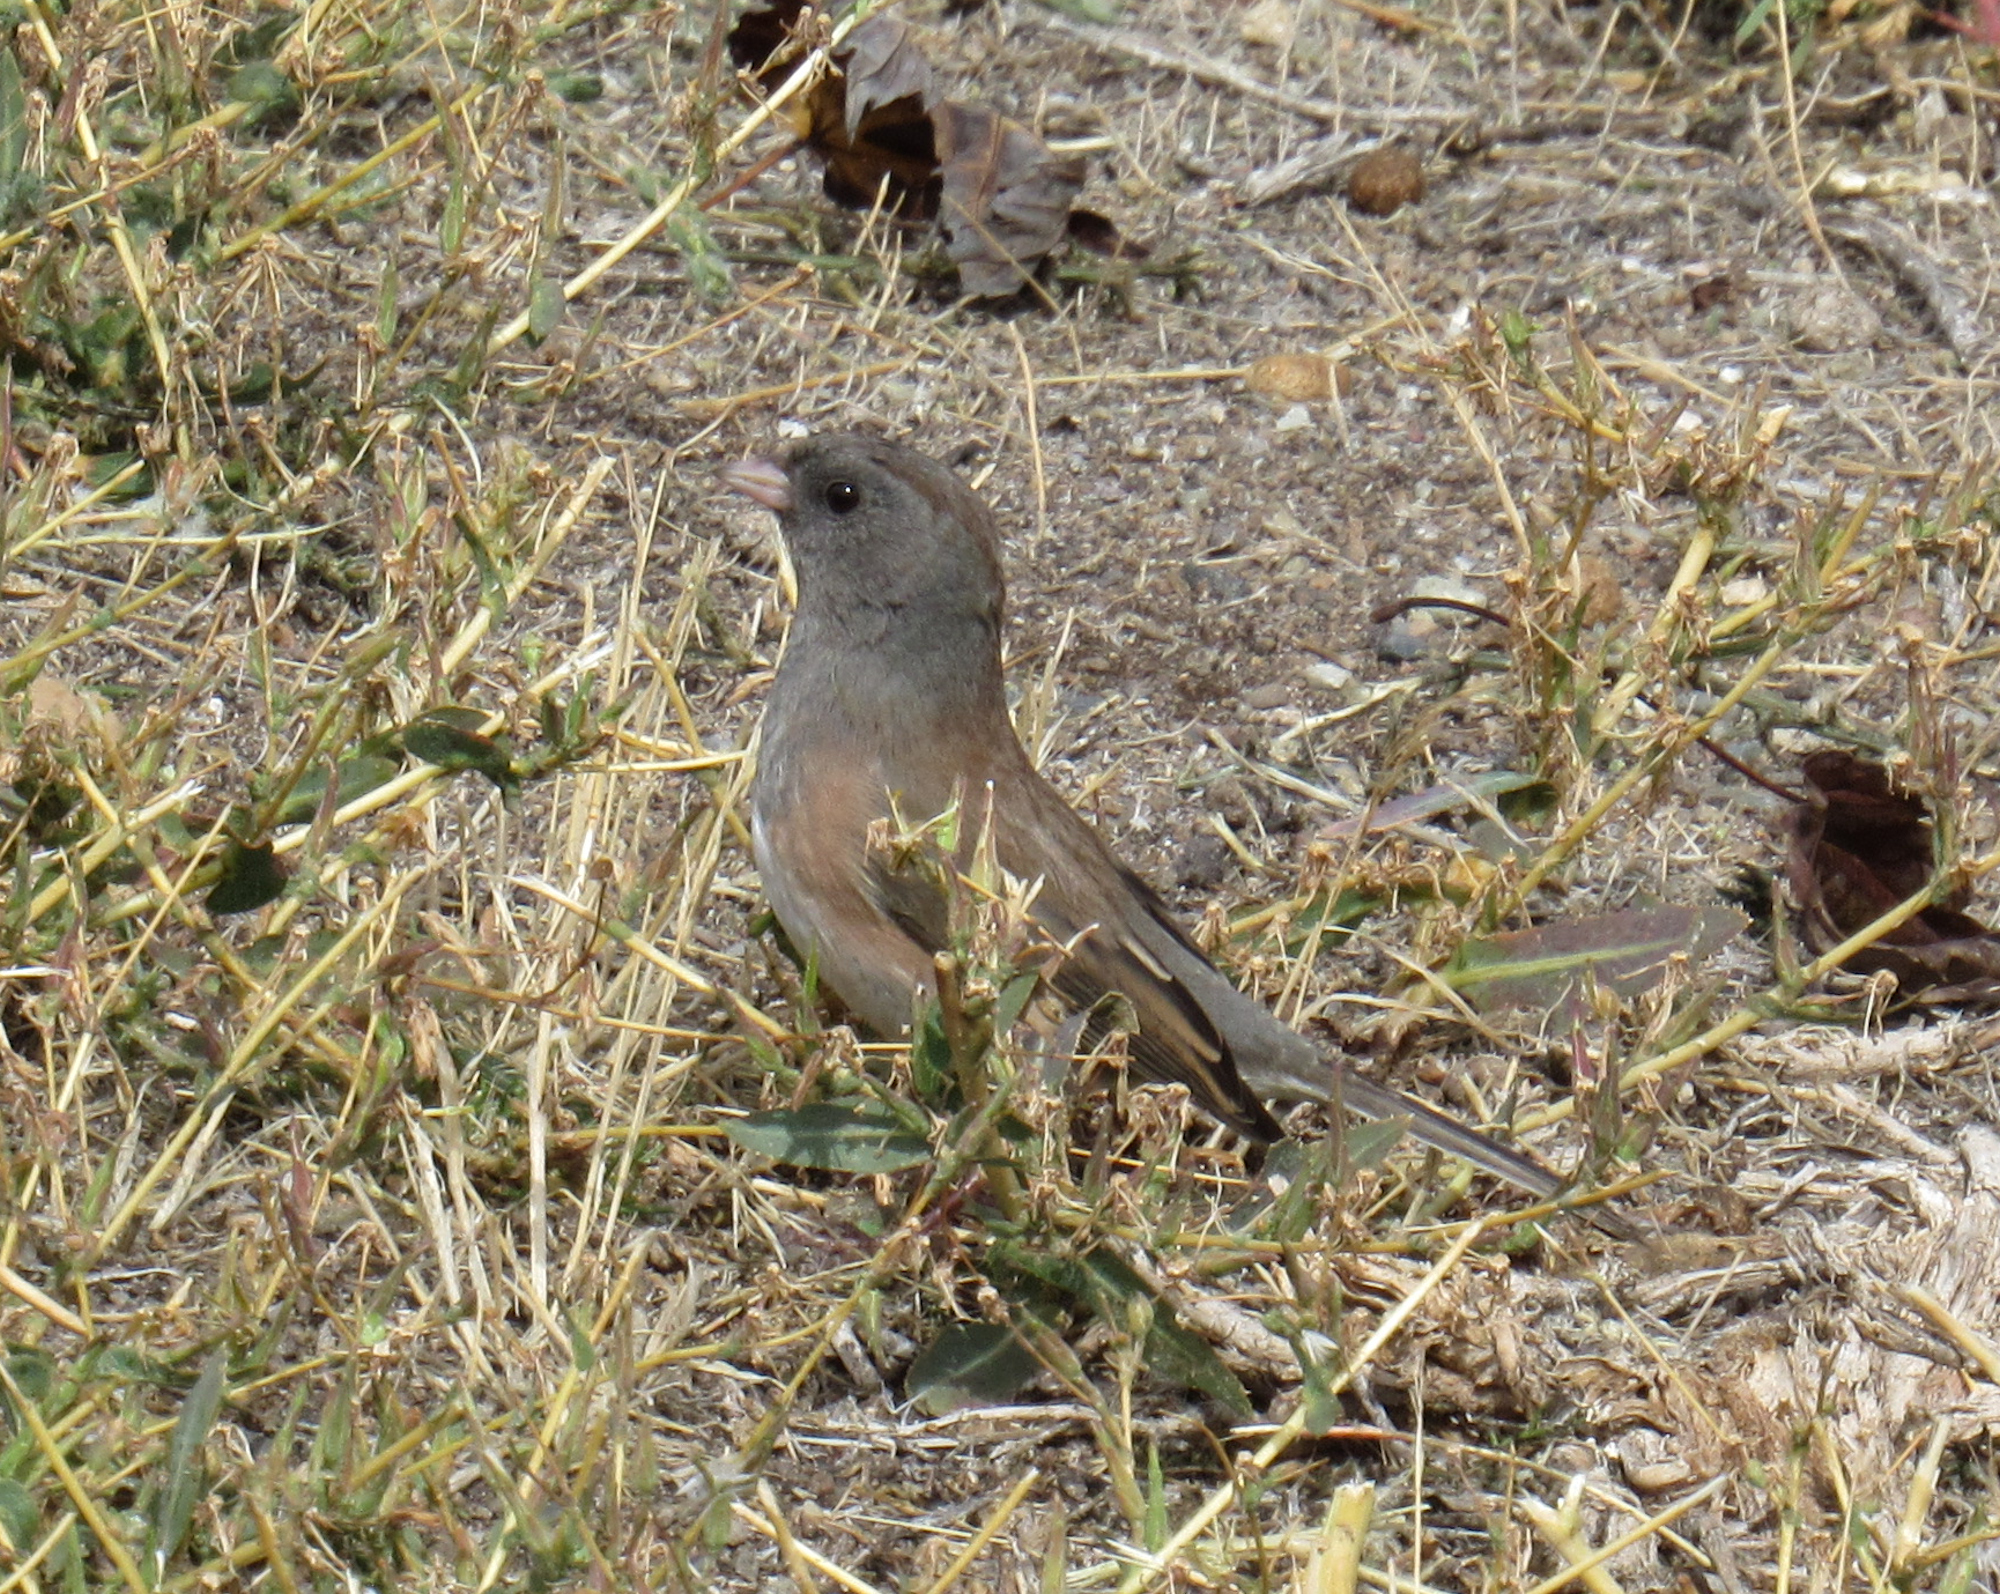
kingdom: Animalia
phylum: Chordata
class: Aves
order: Passeriformes
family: Passerellidae
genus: Junco
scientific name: Junco hyemalis
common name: Dark-eyed junco
